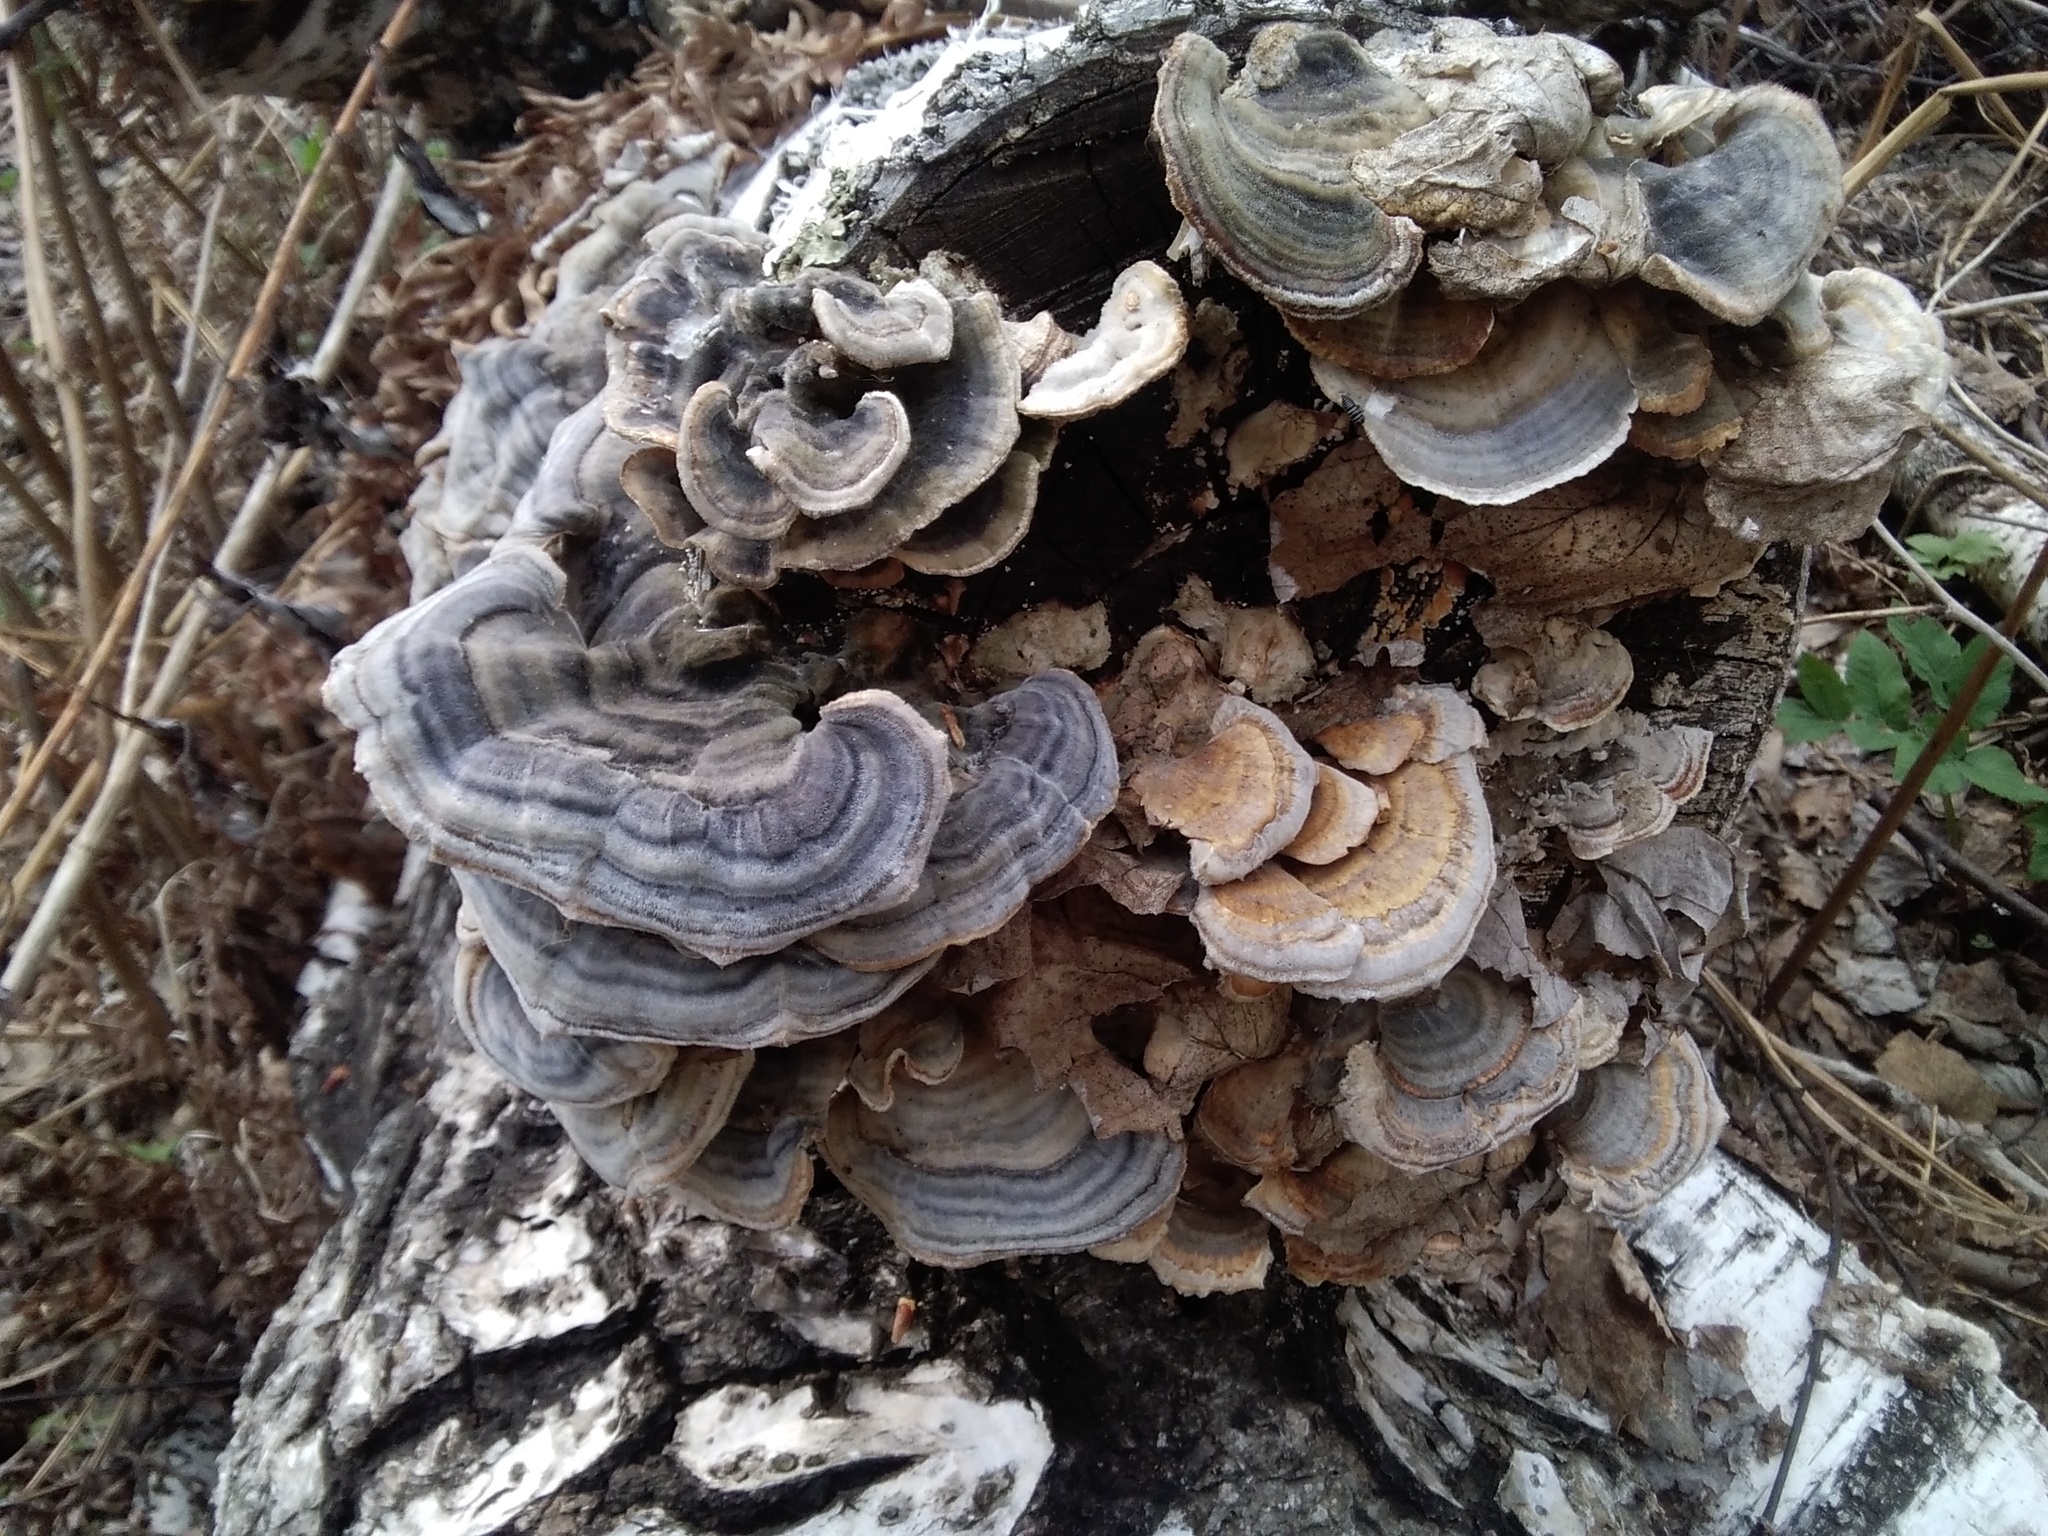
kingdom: Fungi
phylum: Basidiomycota
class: Agaricomycetes
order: Polyporales
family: Polyporaceae
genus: Trametes
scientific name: Trametes versicolor
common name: Turkeytail
